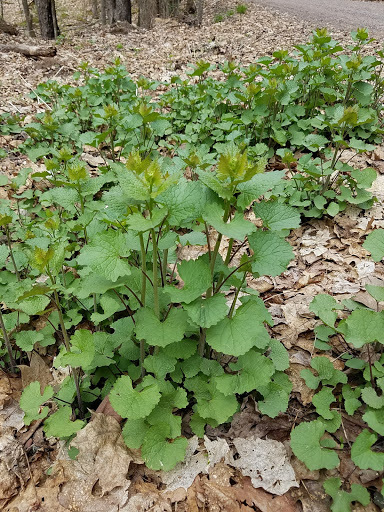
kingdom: Plantae
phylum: Tracheophyta
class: Magnoliopsida
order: Brassicales
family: Brassicaceae
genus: Alliaria
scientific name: Alliaria petiolata
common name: Garlic mustard
